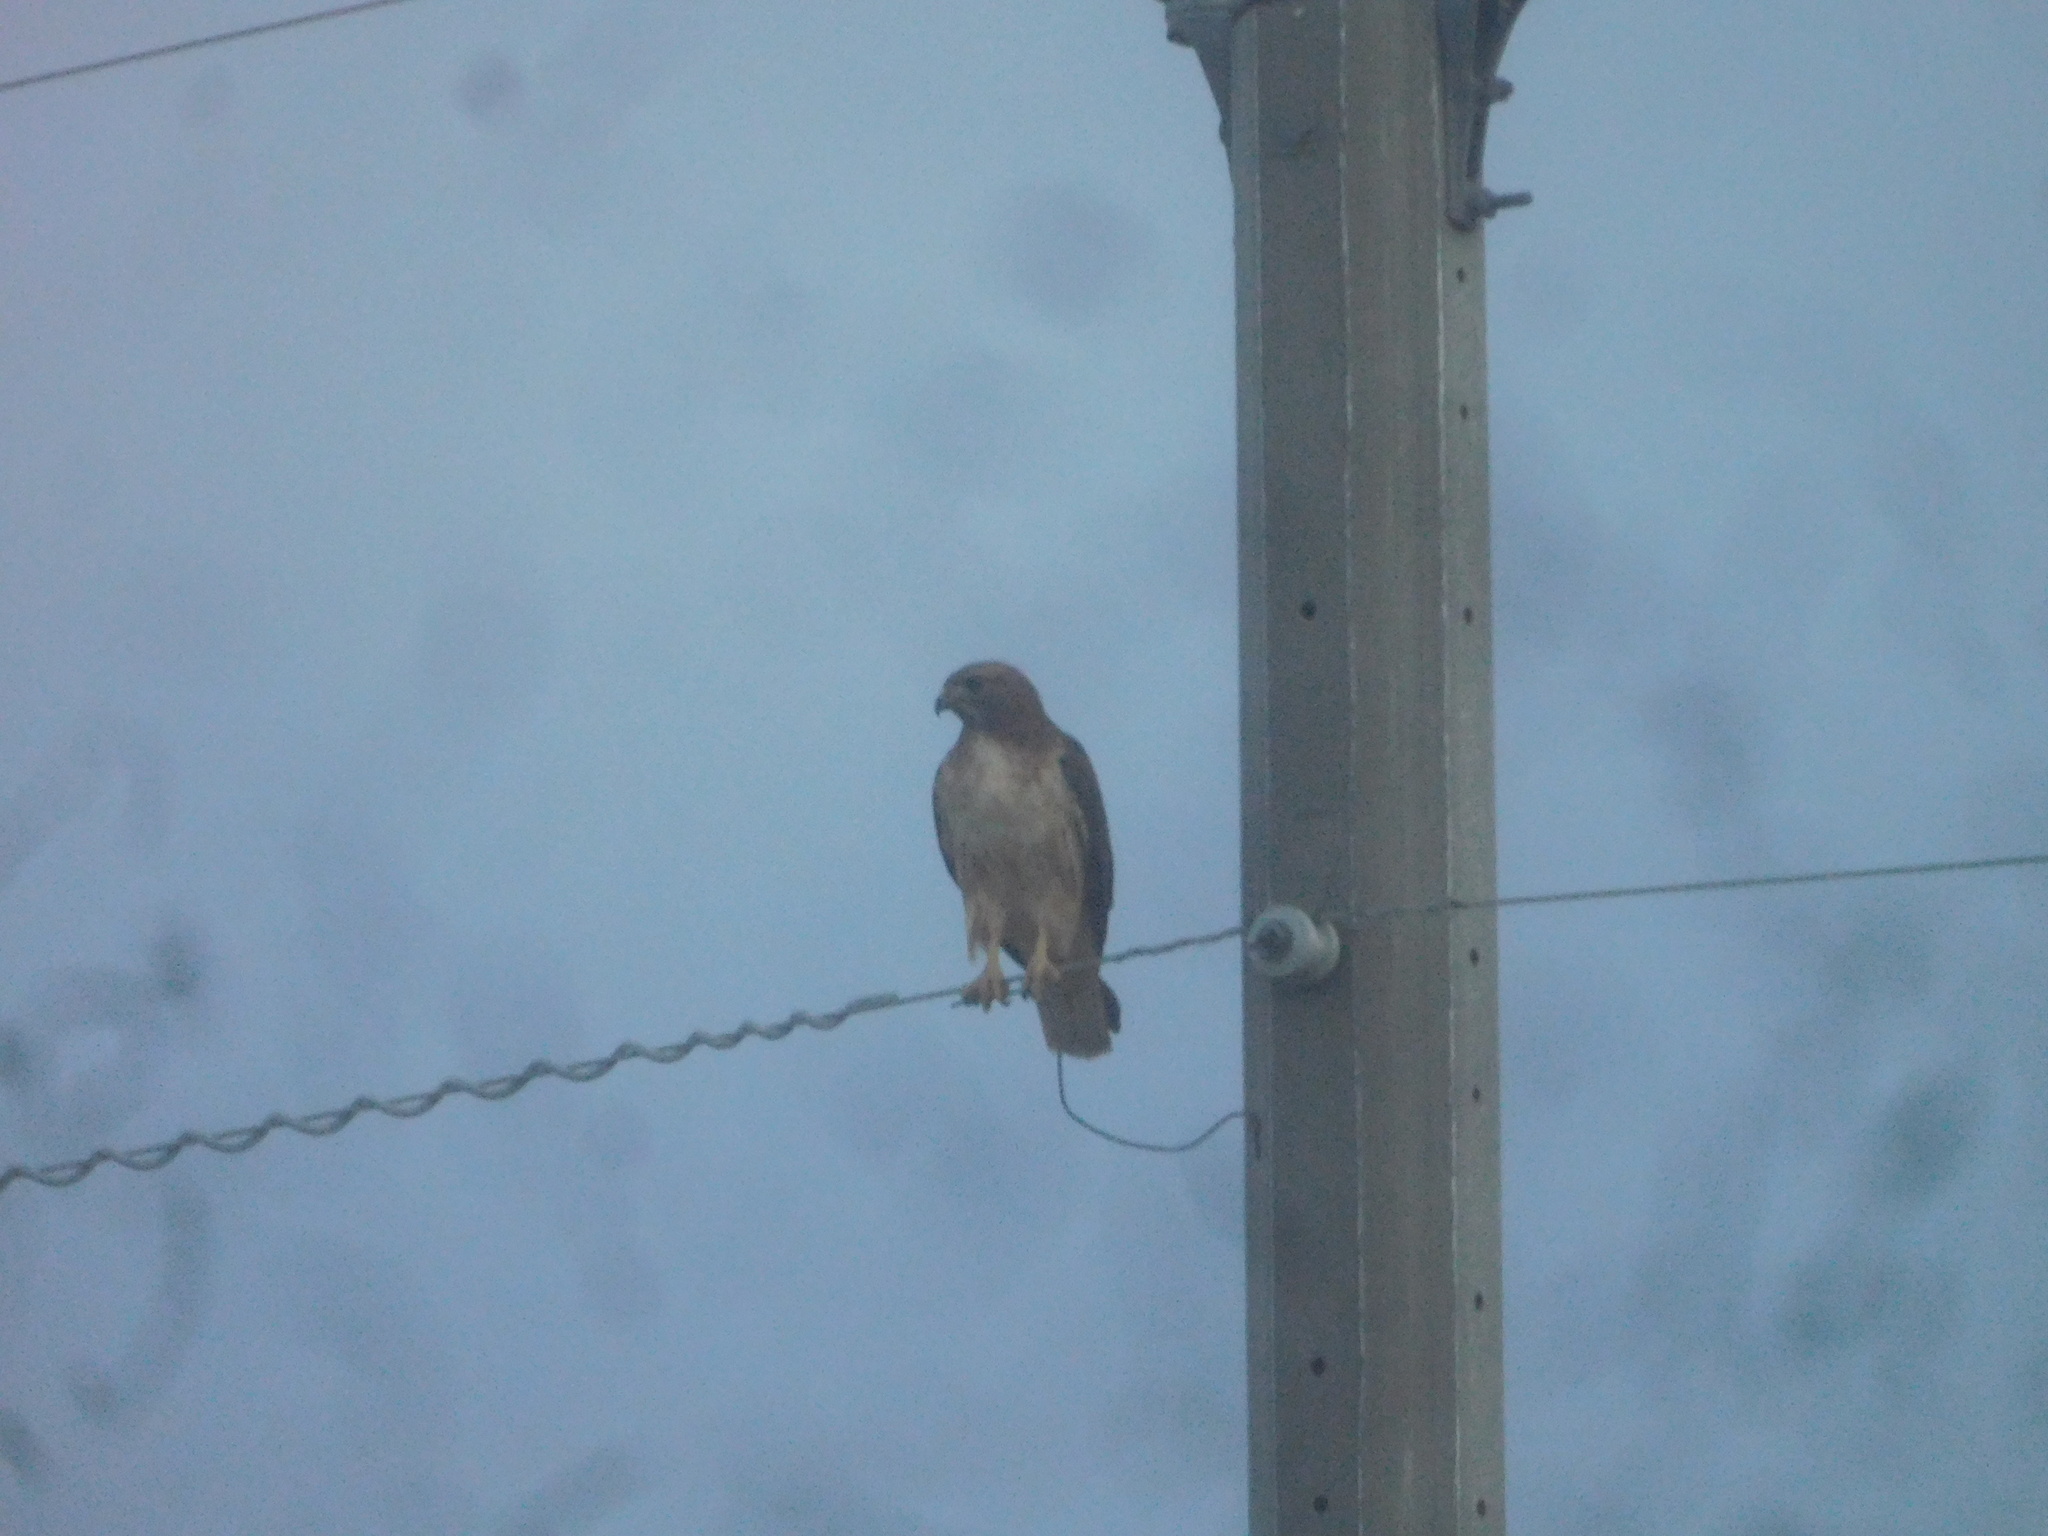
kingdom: Animalia
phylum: Chordata
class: Aves
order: Accipitriformes
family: Accipitridae
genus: Buteo
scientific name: Buteo jamaicensis
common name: Red-tailed hawk
